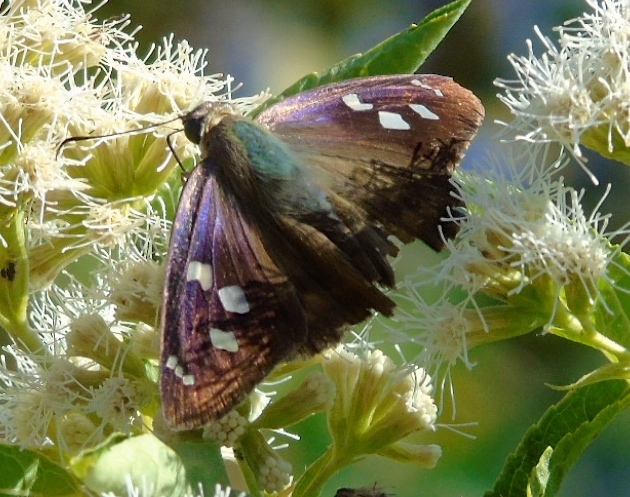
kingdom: Animalia
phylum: Arthropoda
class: Insecta
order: Lepidoptera
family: Hesperiidae
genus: Polygonus
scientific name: Polygonus leo
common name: Hammoch skipper
